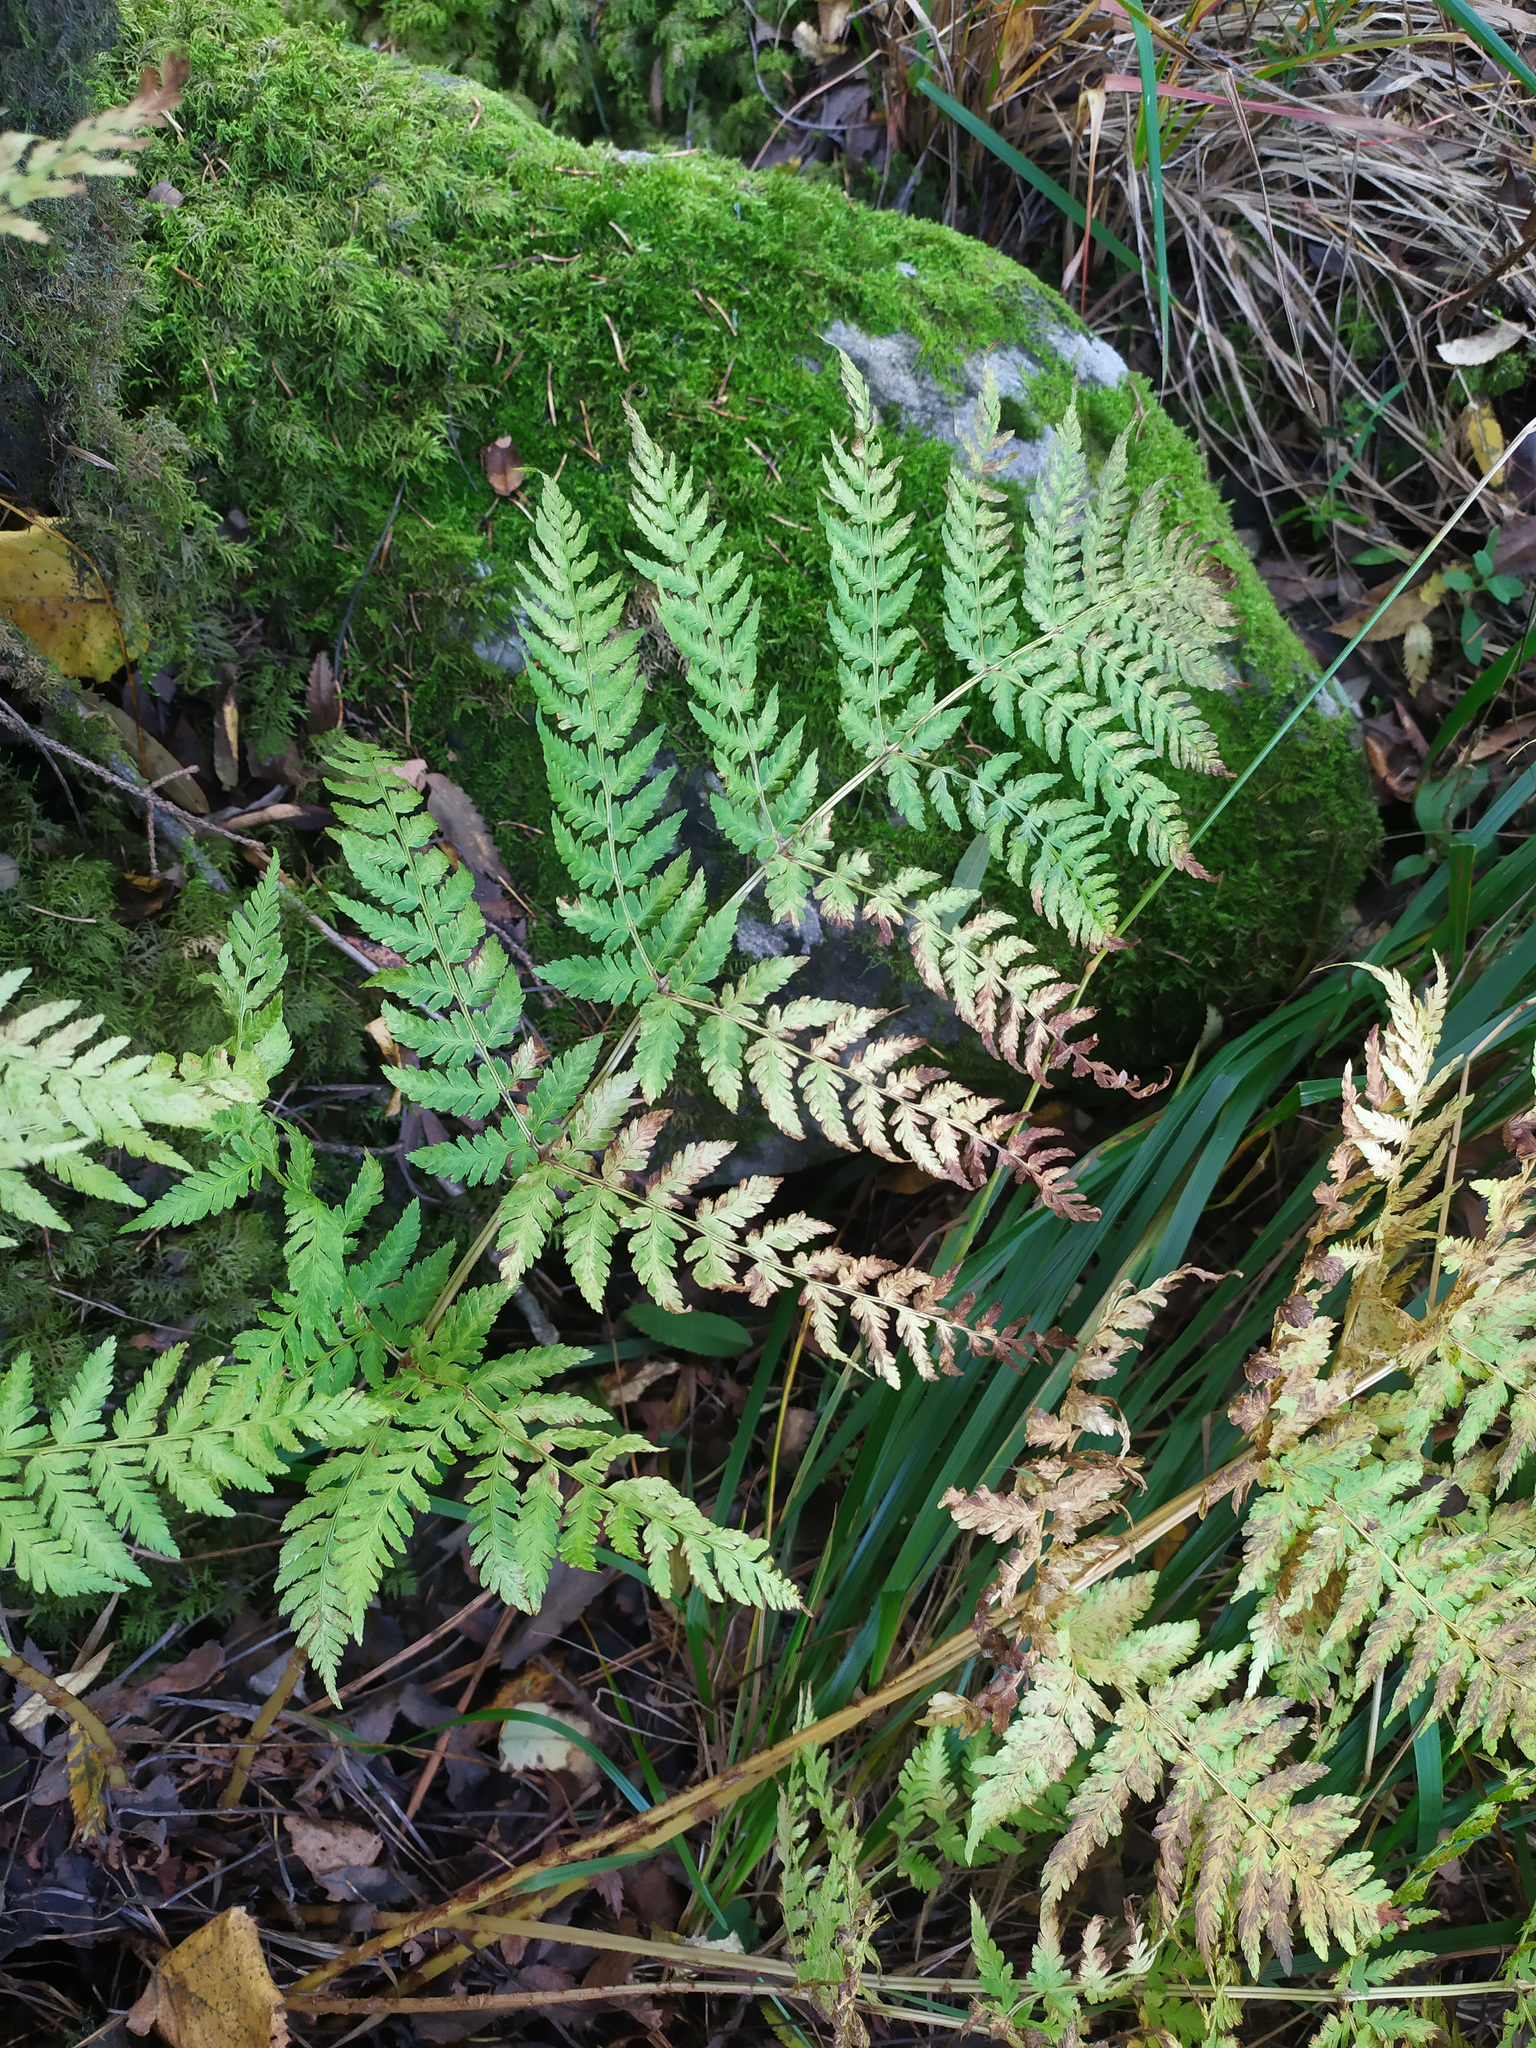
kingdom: Plantae
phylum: Tracheophyta
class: Polypodiopsida
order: Polypodiales
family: Dryopteridaceae
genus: Dryopteris
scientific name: Dryopteris expansa
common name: Northern buckler fern
